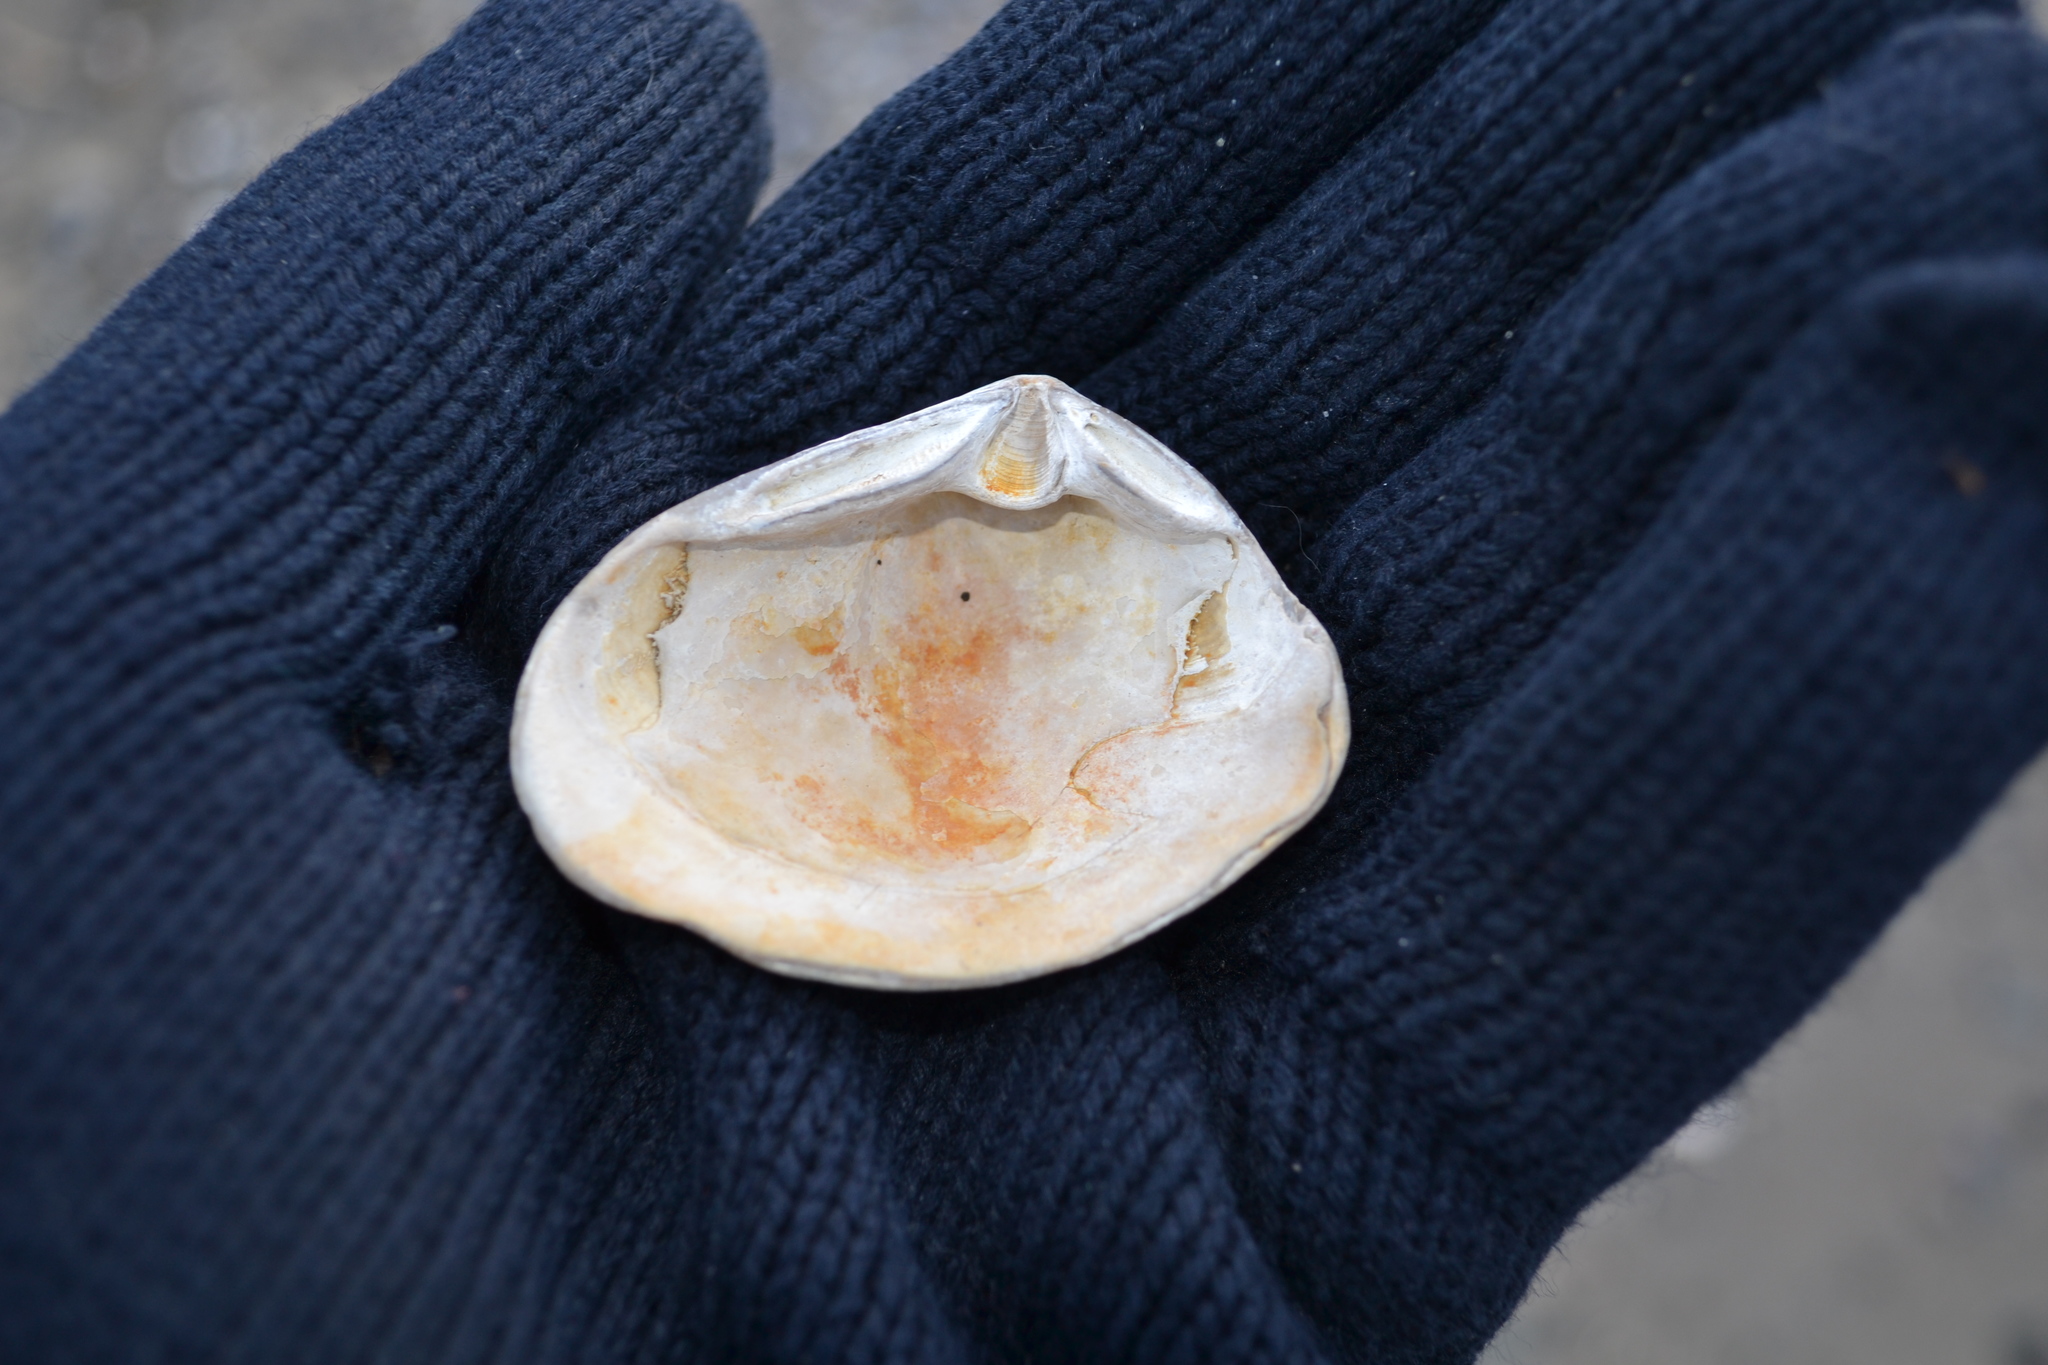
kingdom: Animalia
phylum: Mollusca
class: Bivalvia
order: Venerida
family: Mesodesmatidae
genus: Mesodesma
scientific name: Mesodesma arctatum
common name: Compressed clam
